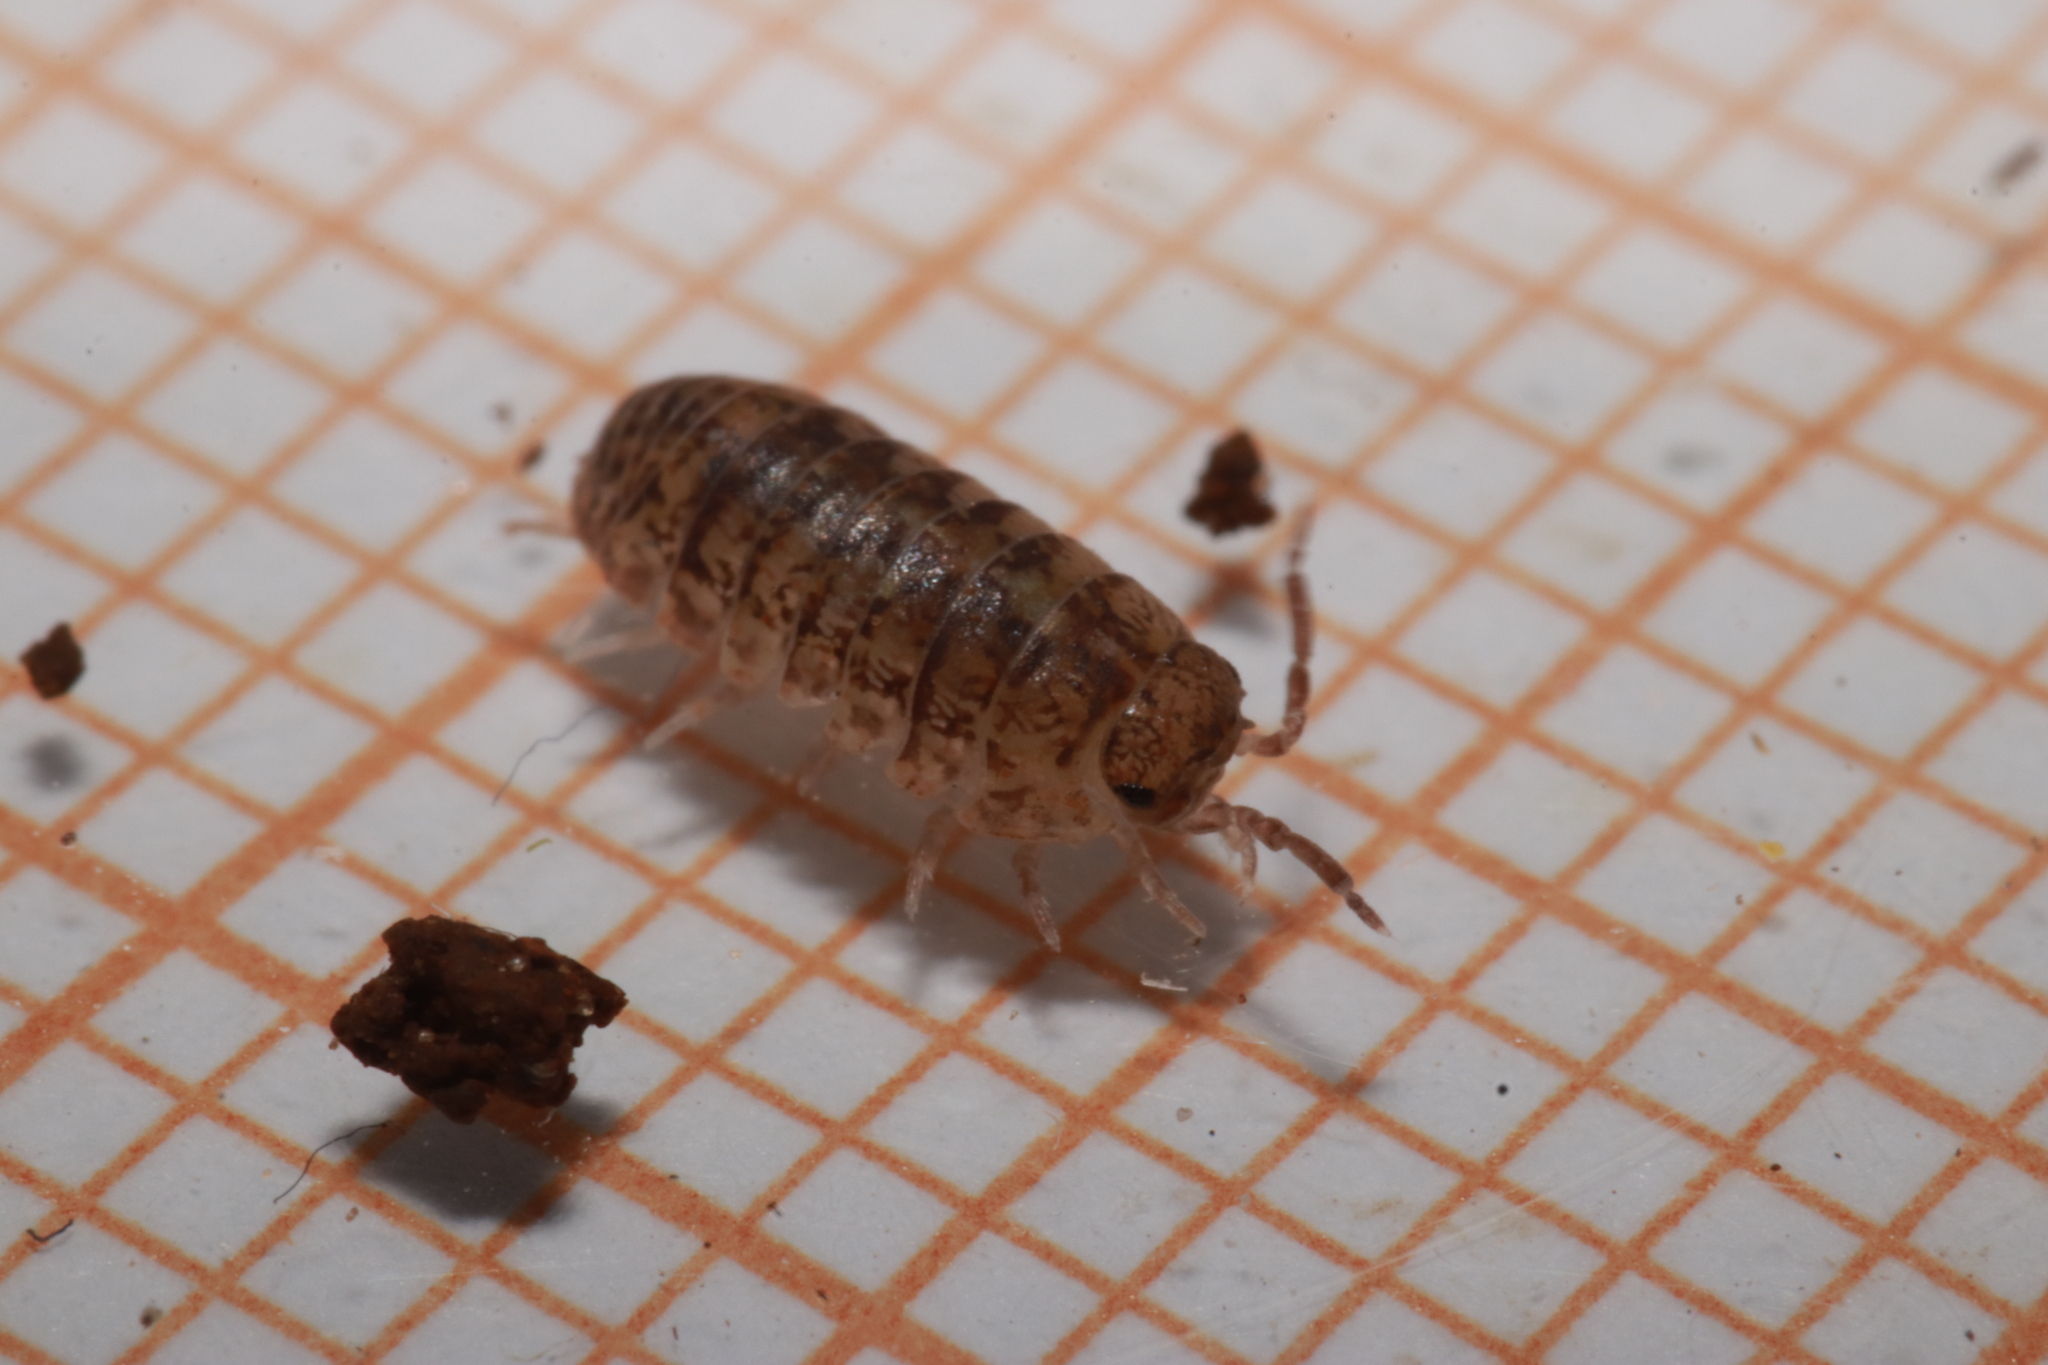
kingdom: Animalia
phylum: Arthropoda
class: Malacostraca
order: Isopoda
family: Armadillidiidae
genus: Armadillidium
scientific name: Armadillidium arcangelii
